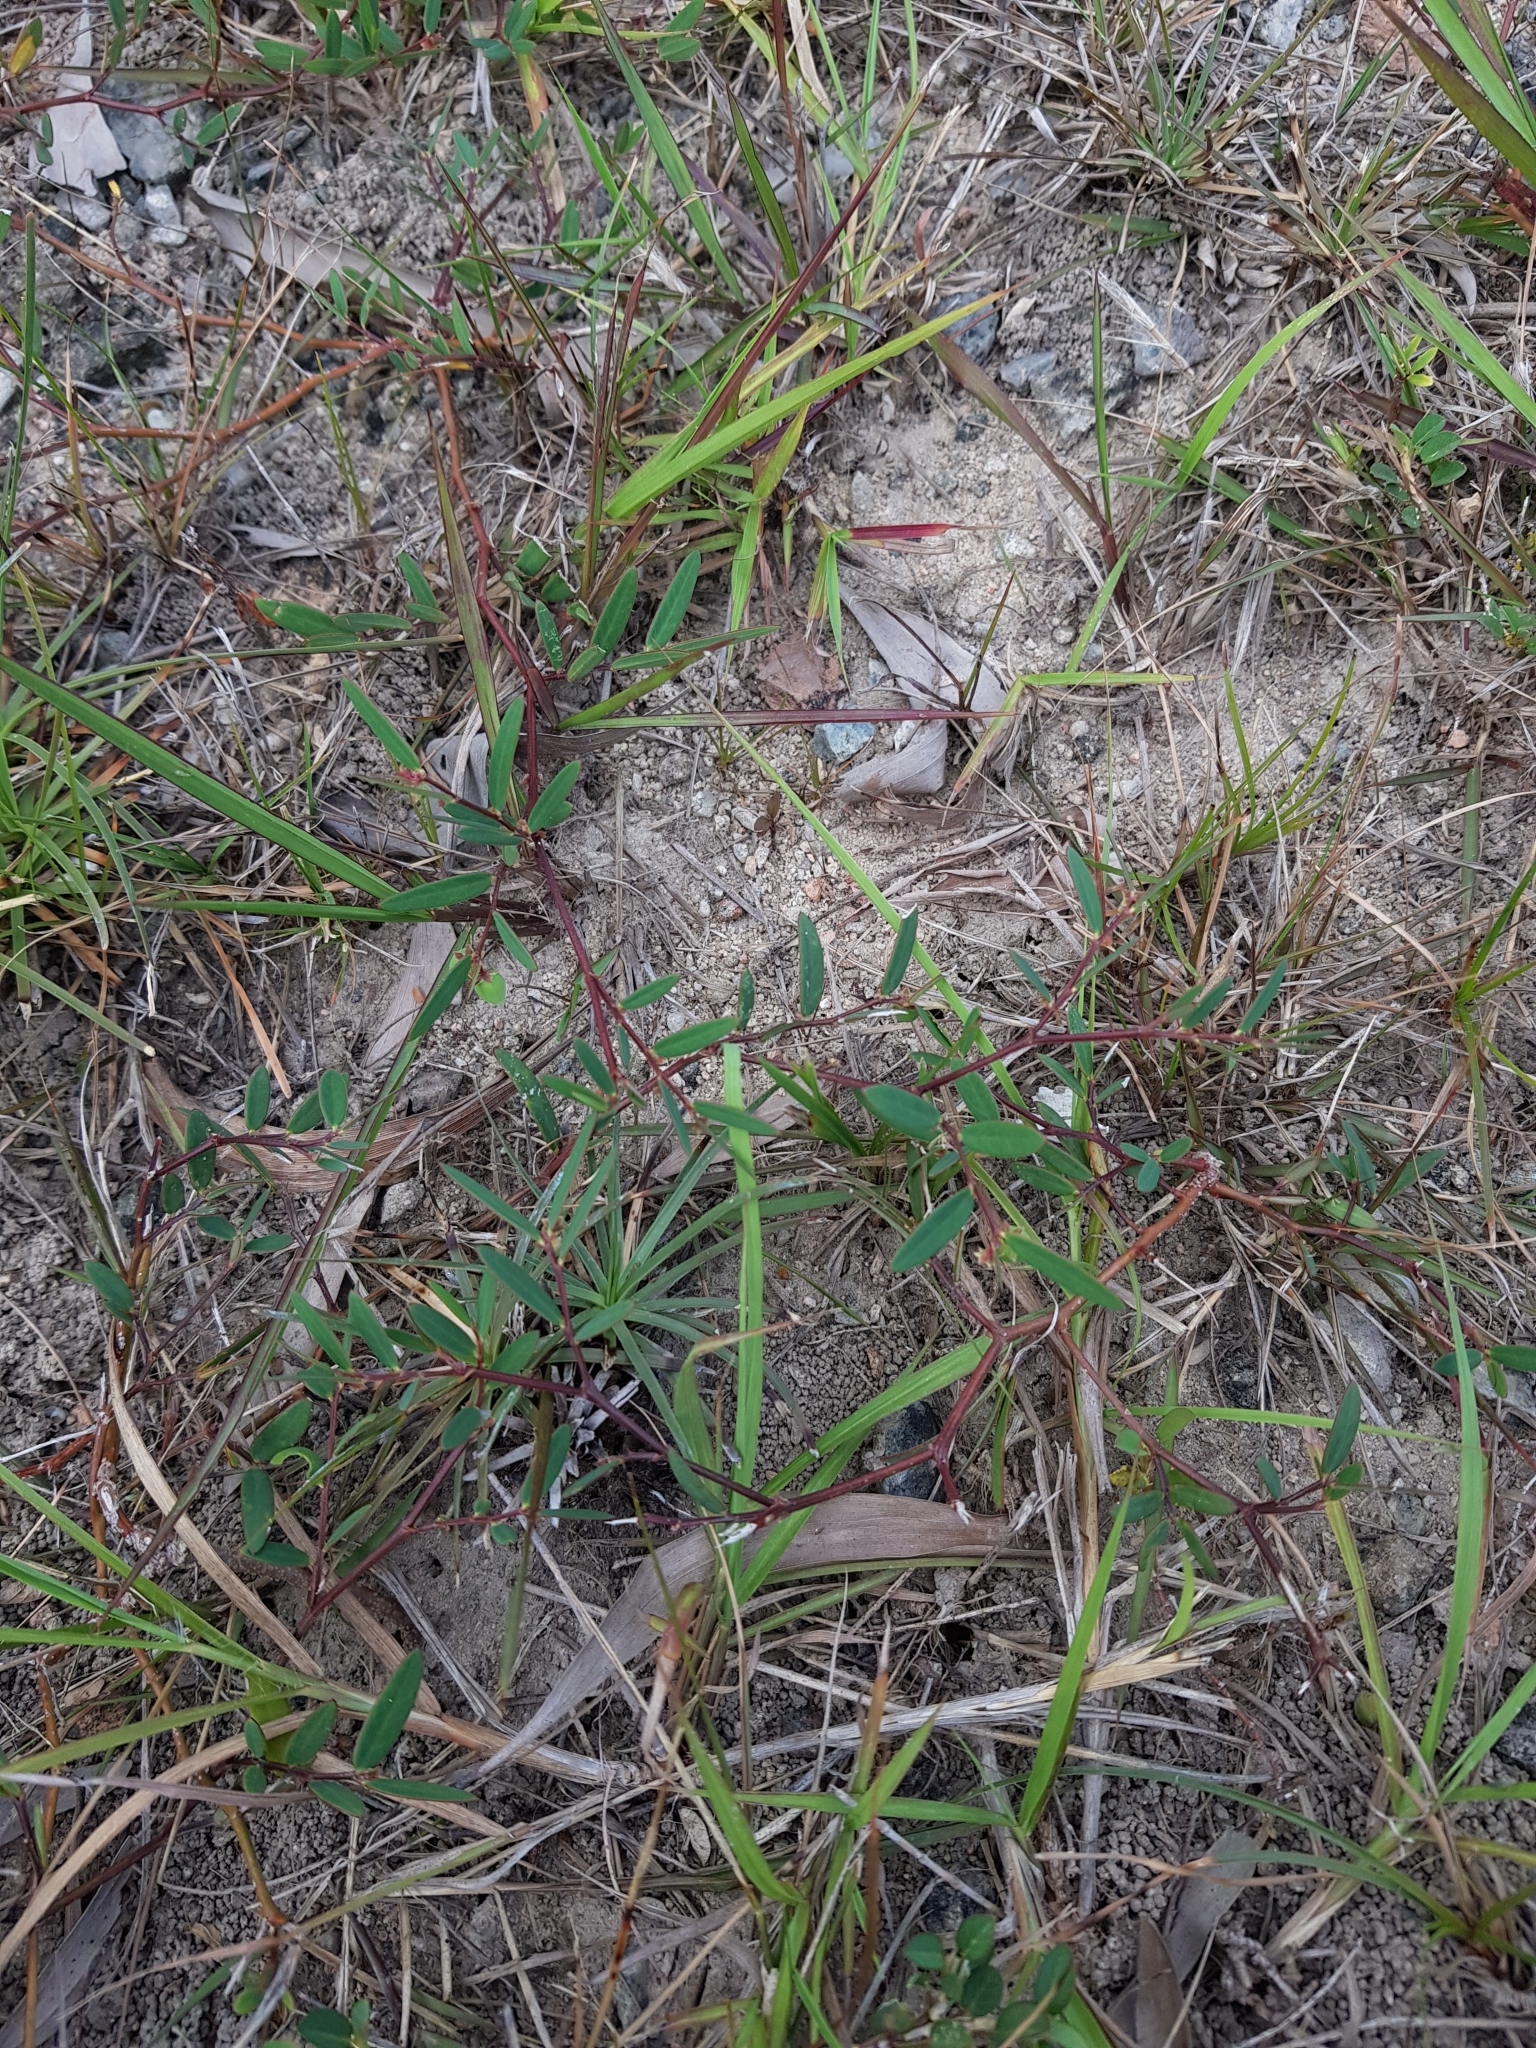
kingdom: Plantae
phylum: Tracheophyta
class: Magnoliopsida
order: Malpighiales
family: Phyllanthaceae
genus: Synostemon
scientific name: Synostemon bacciformis
